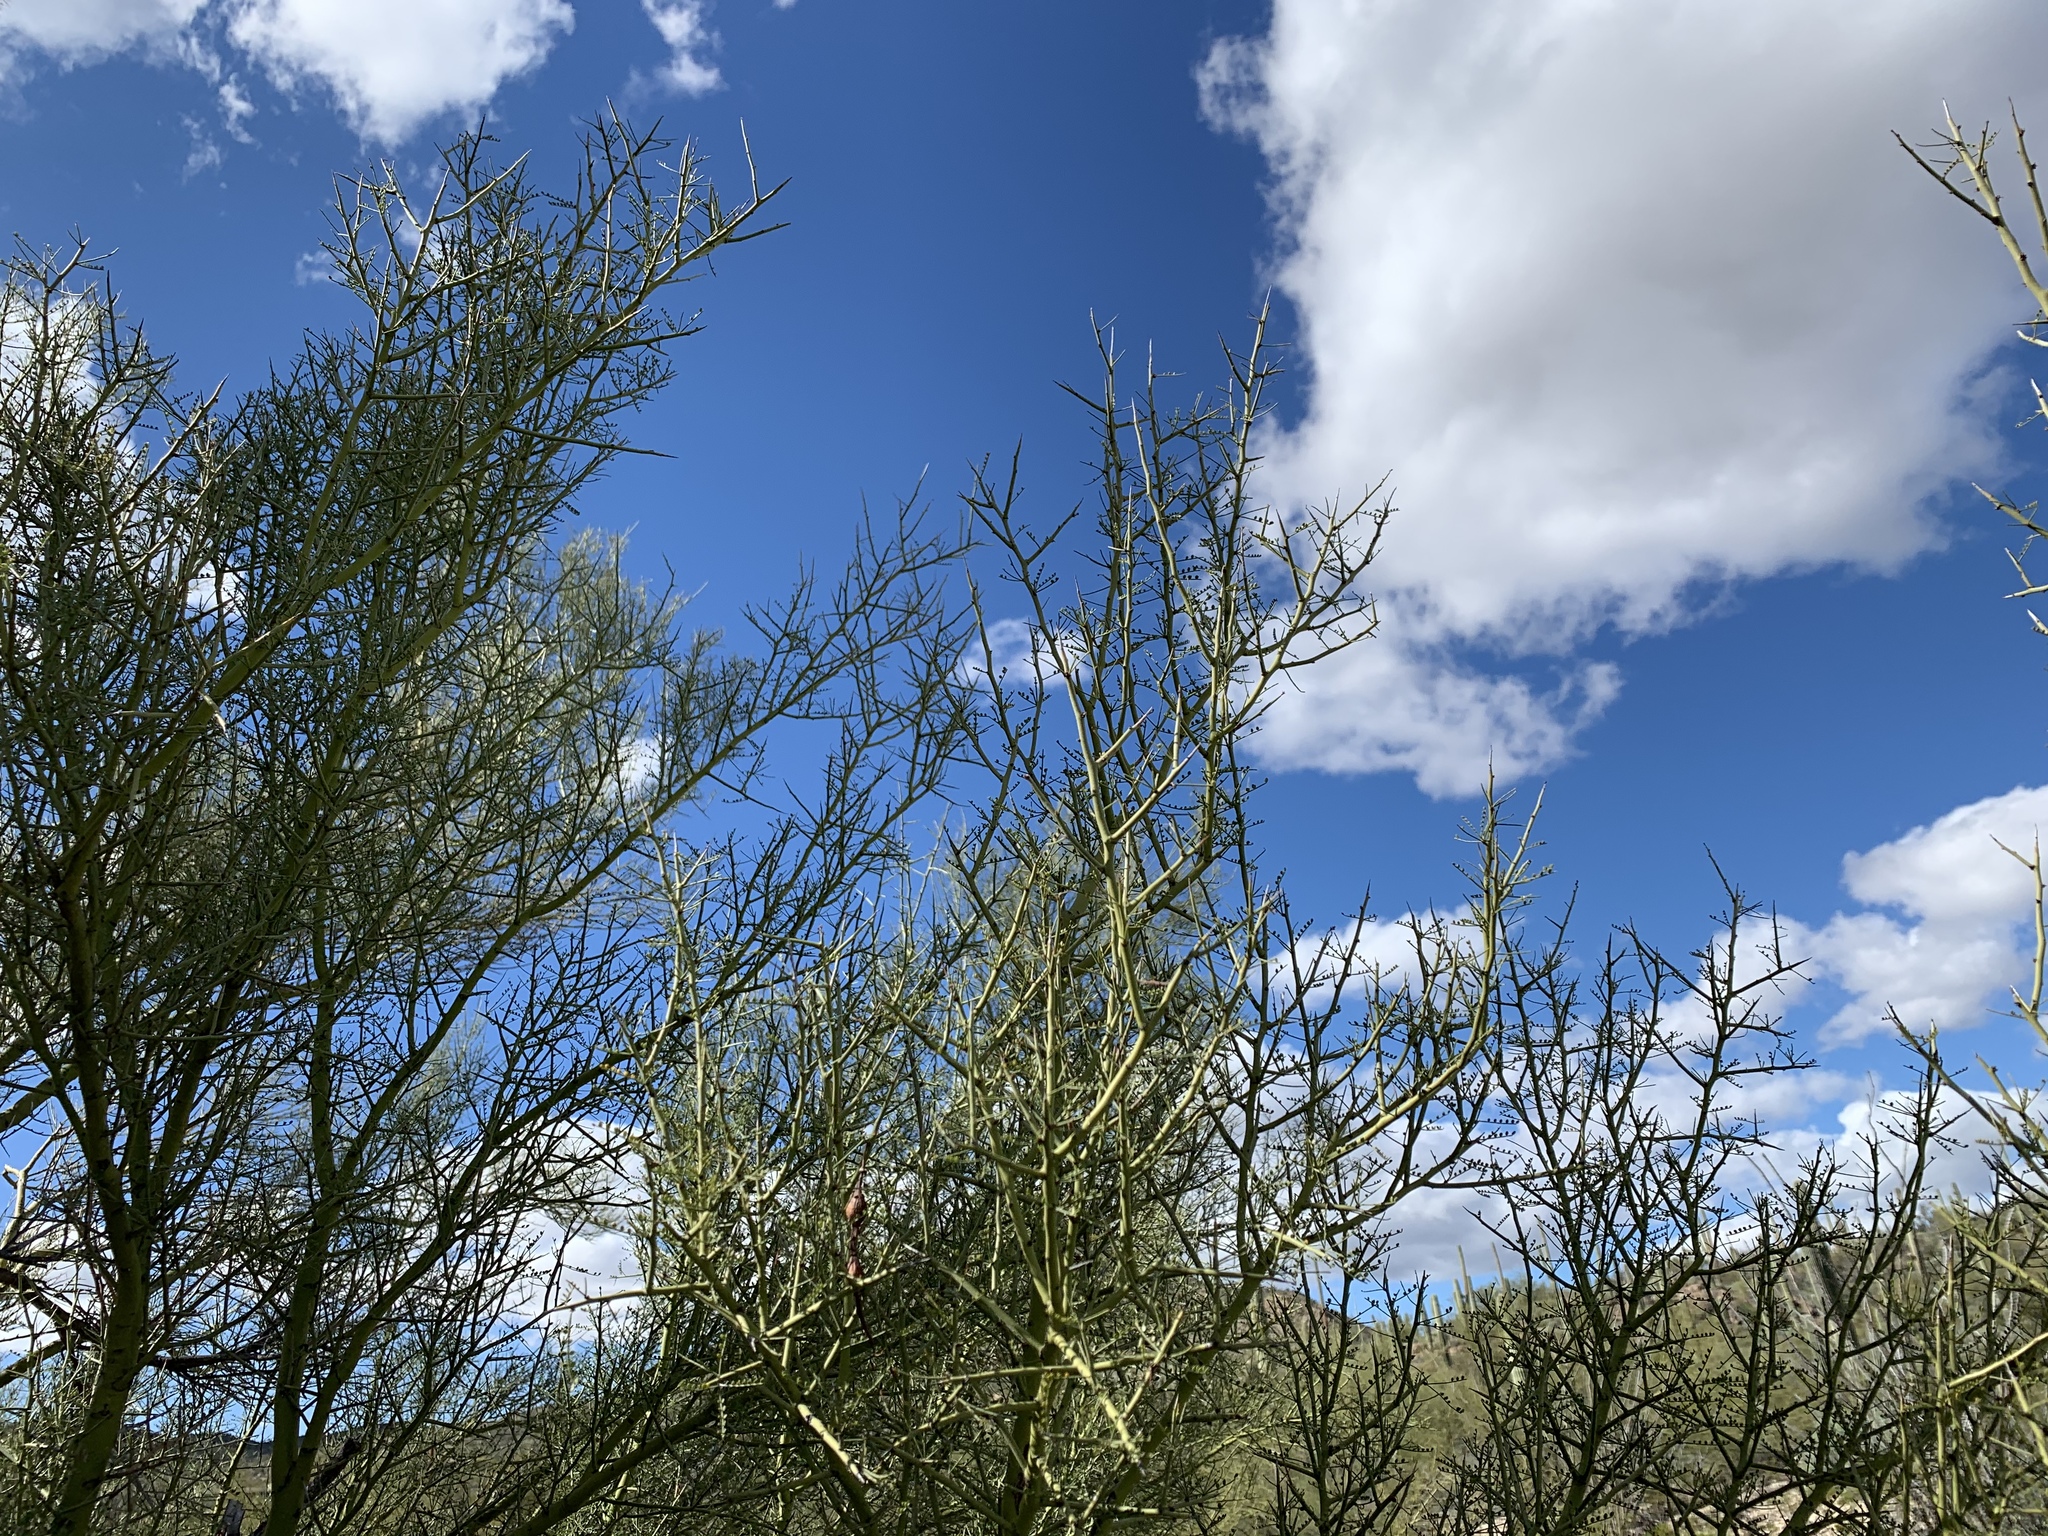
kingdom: Plantae
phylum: Tracheophyta
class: Magnoliopsida
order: Fabales
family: Fabaceae
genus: Parkinsonia
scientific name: Parkinsonia microphylla
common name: Yellow paloverde
